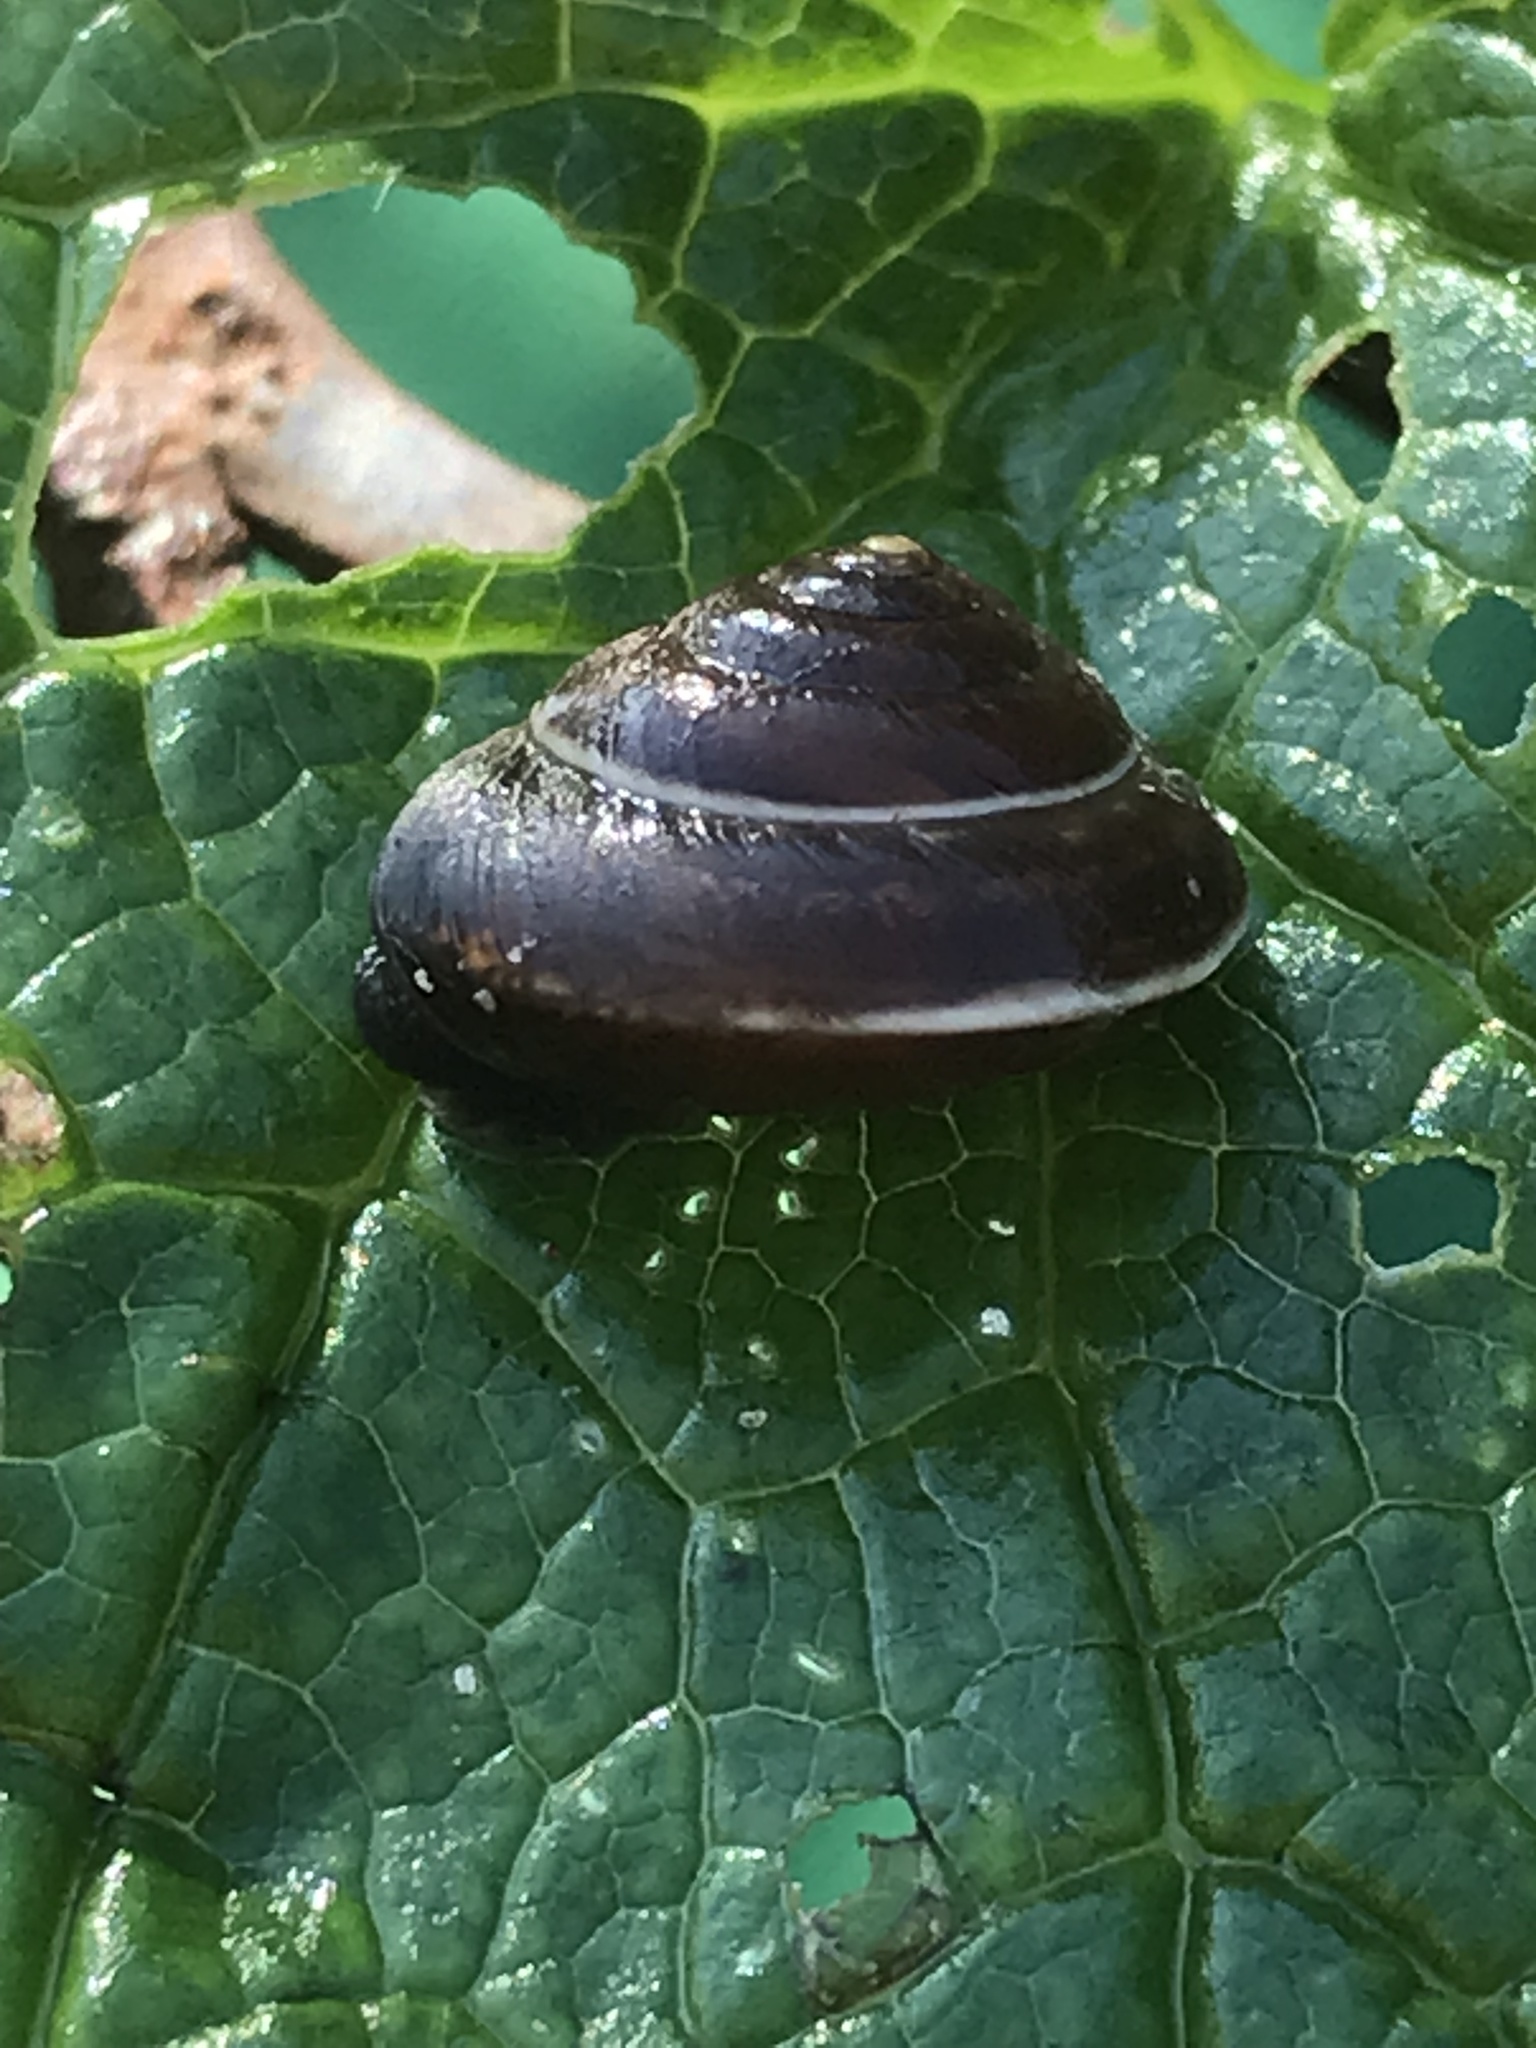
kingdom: Animalia
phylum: Mollusca
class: Gastropoda
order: Stylommatophora
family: Hygromiidae
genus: Hygromia
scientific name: Hygromia cinctella
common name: Girdled snail
